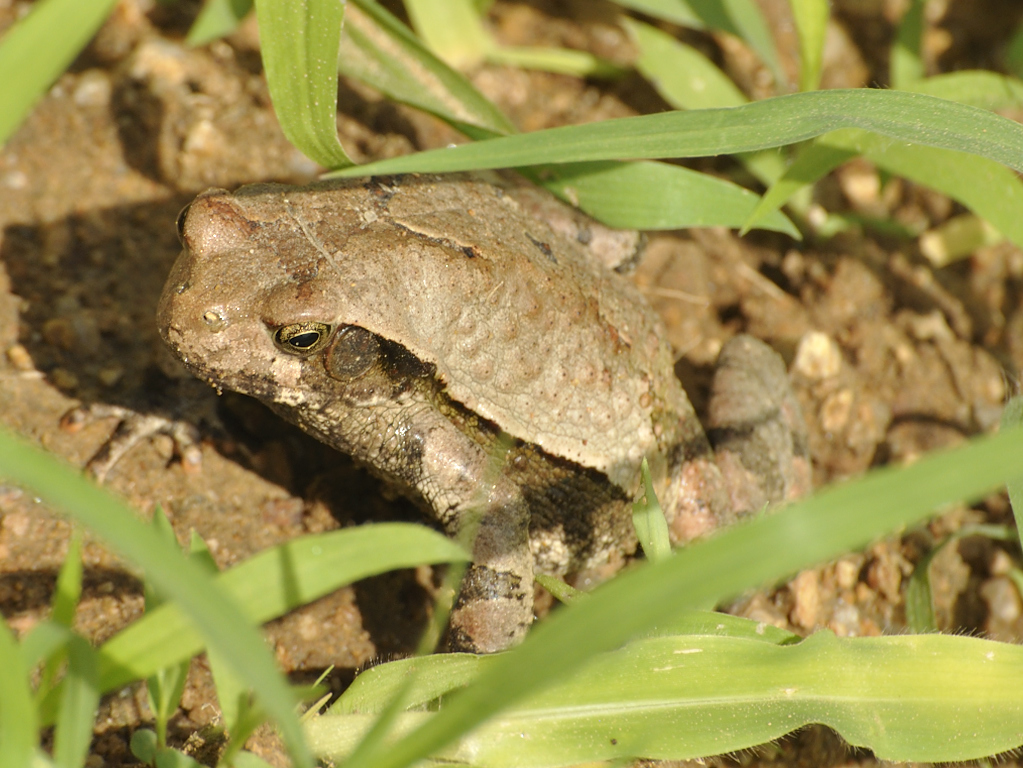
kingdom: Animalia
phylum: Chordata
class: Amphibia
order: Anura
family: Bufonidae
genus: Schismaderma
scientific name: Schismaderma carens
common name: African split-skin toad
